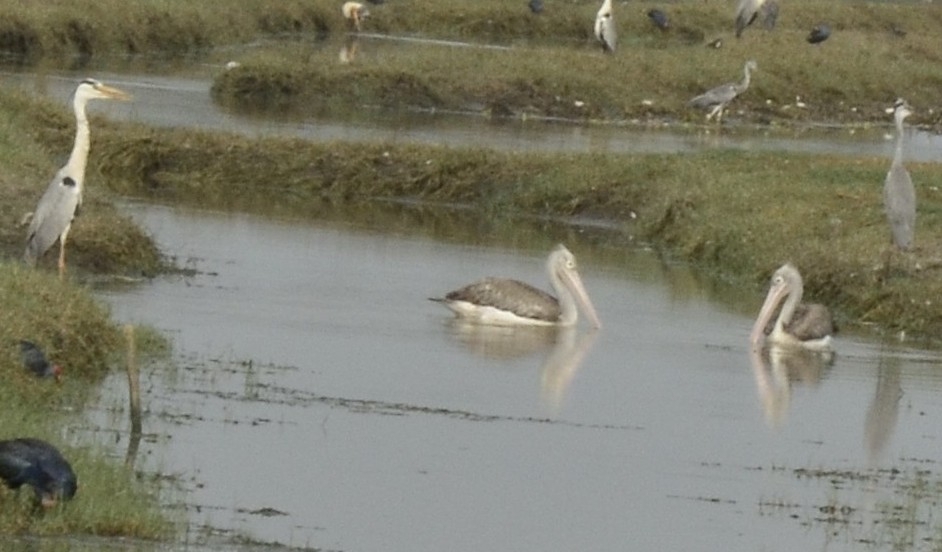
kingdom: Animalia
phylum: Chordata
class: Aves
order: Pelecaniformes
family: Pelecanidae
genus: Pelecanus
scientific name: Pelecanus philippensis
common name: Spot-billed pelican
